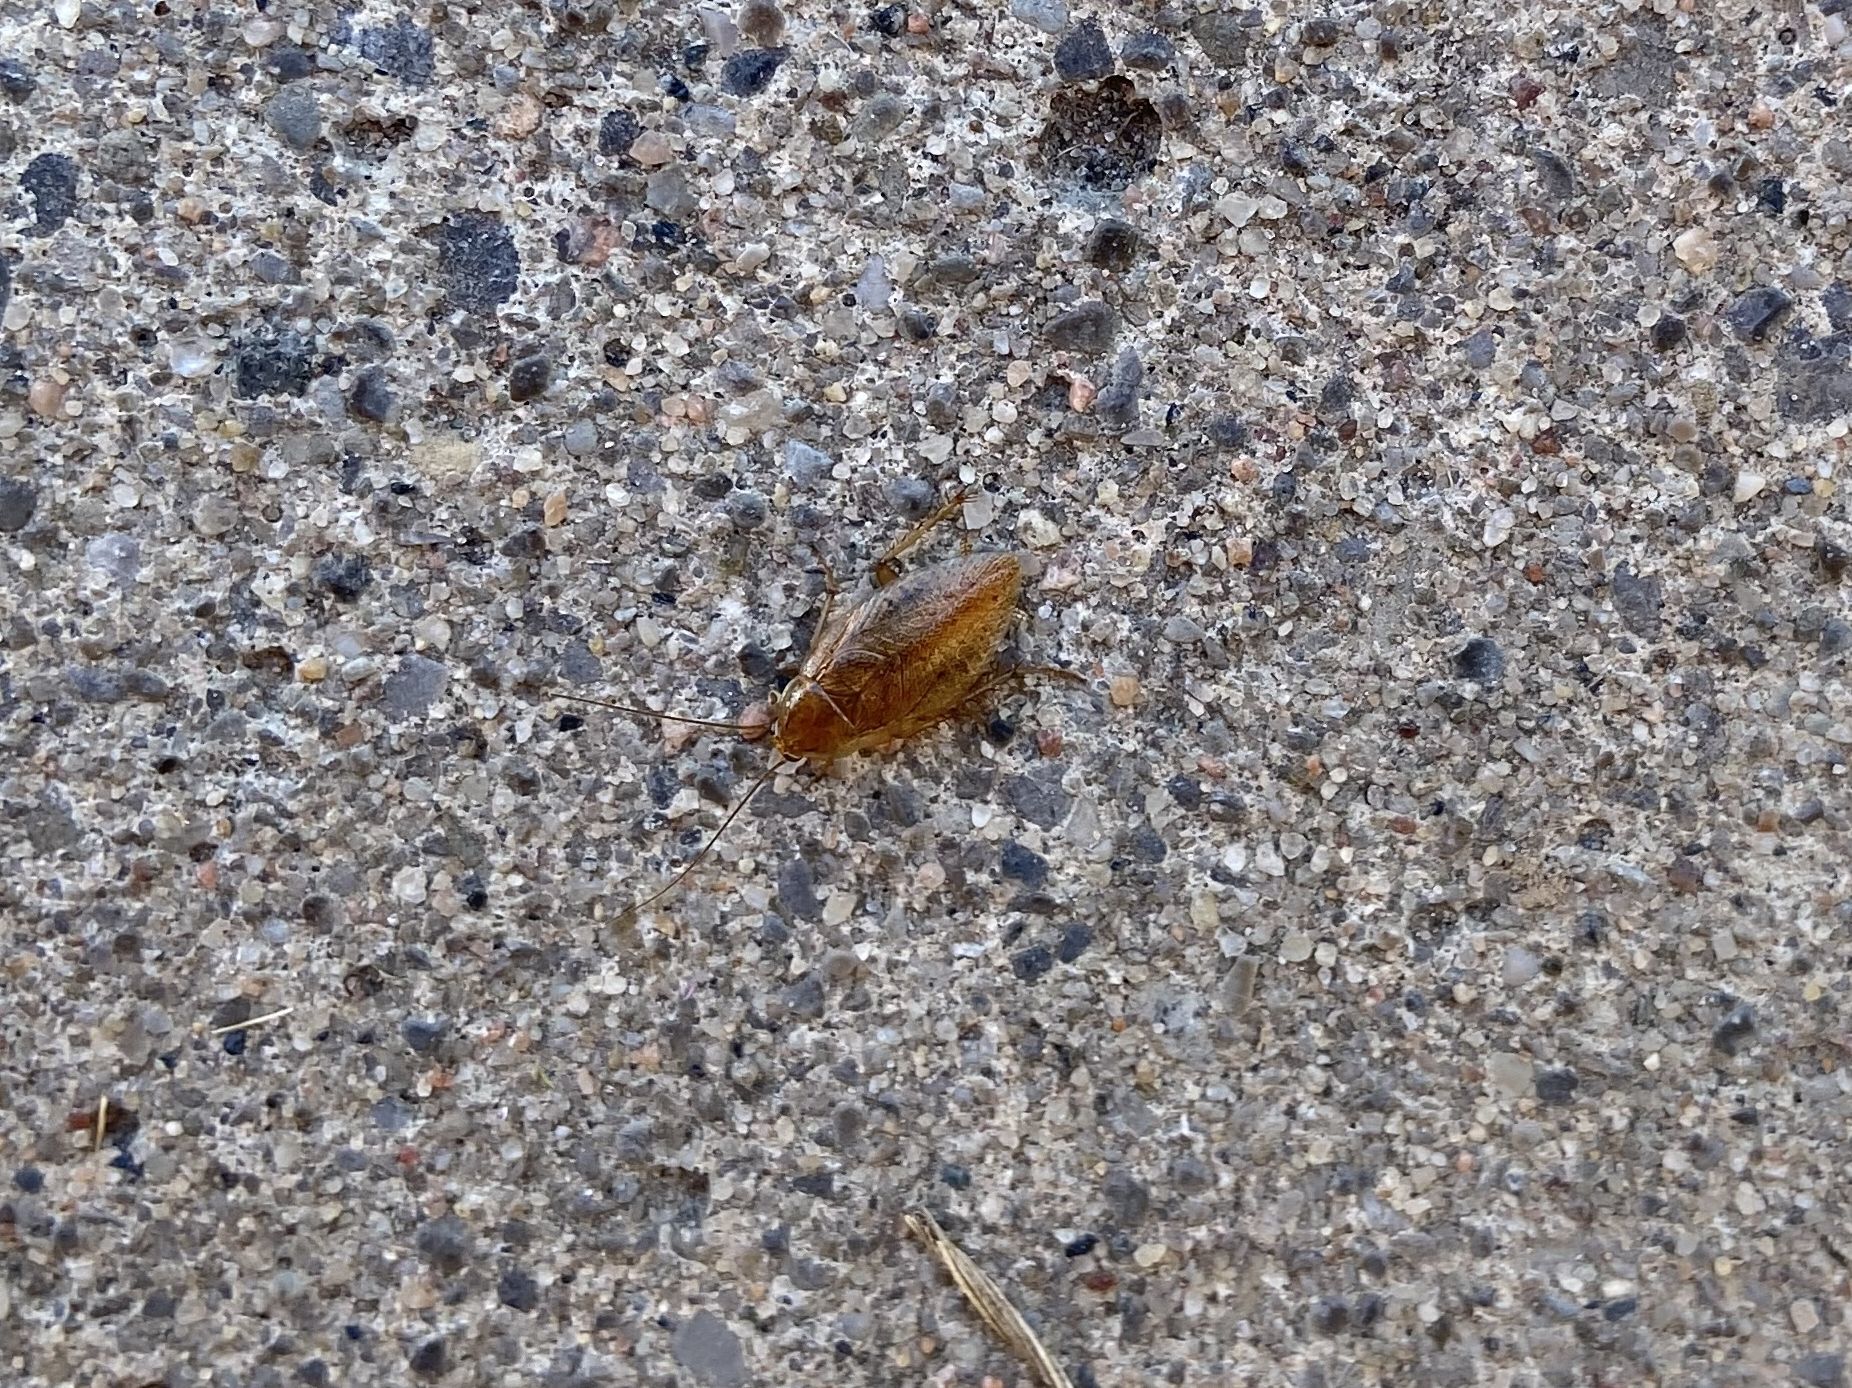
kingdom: Animalia
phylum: Arthropoda
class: Insecta
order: Blattodea
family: Ectobiidae
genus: Ectobius
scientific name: Ectobius pallidus
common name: Tawny cockroach
